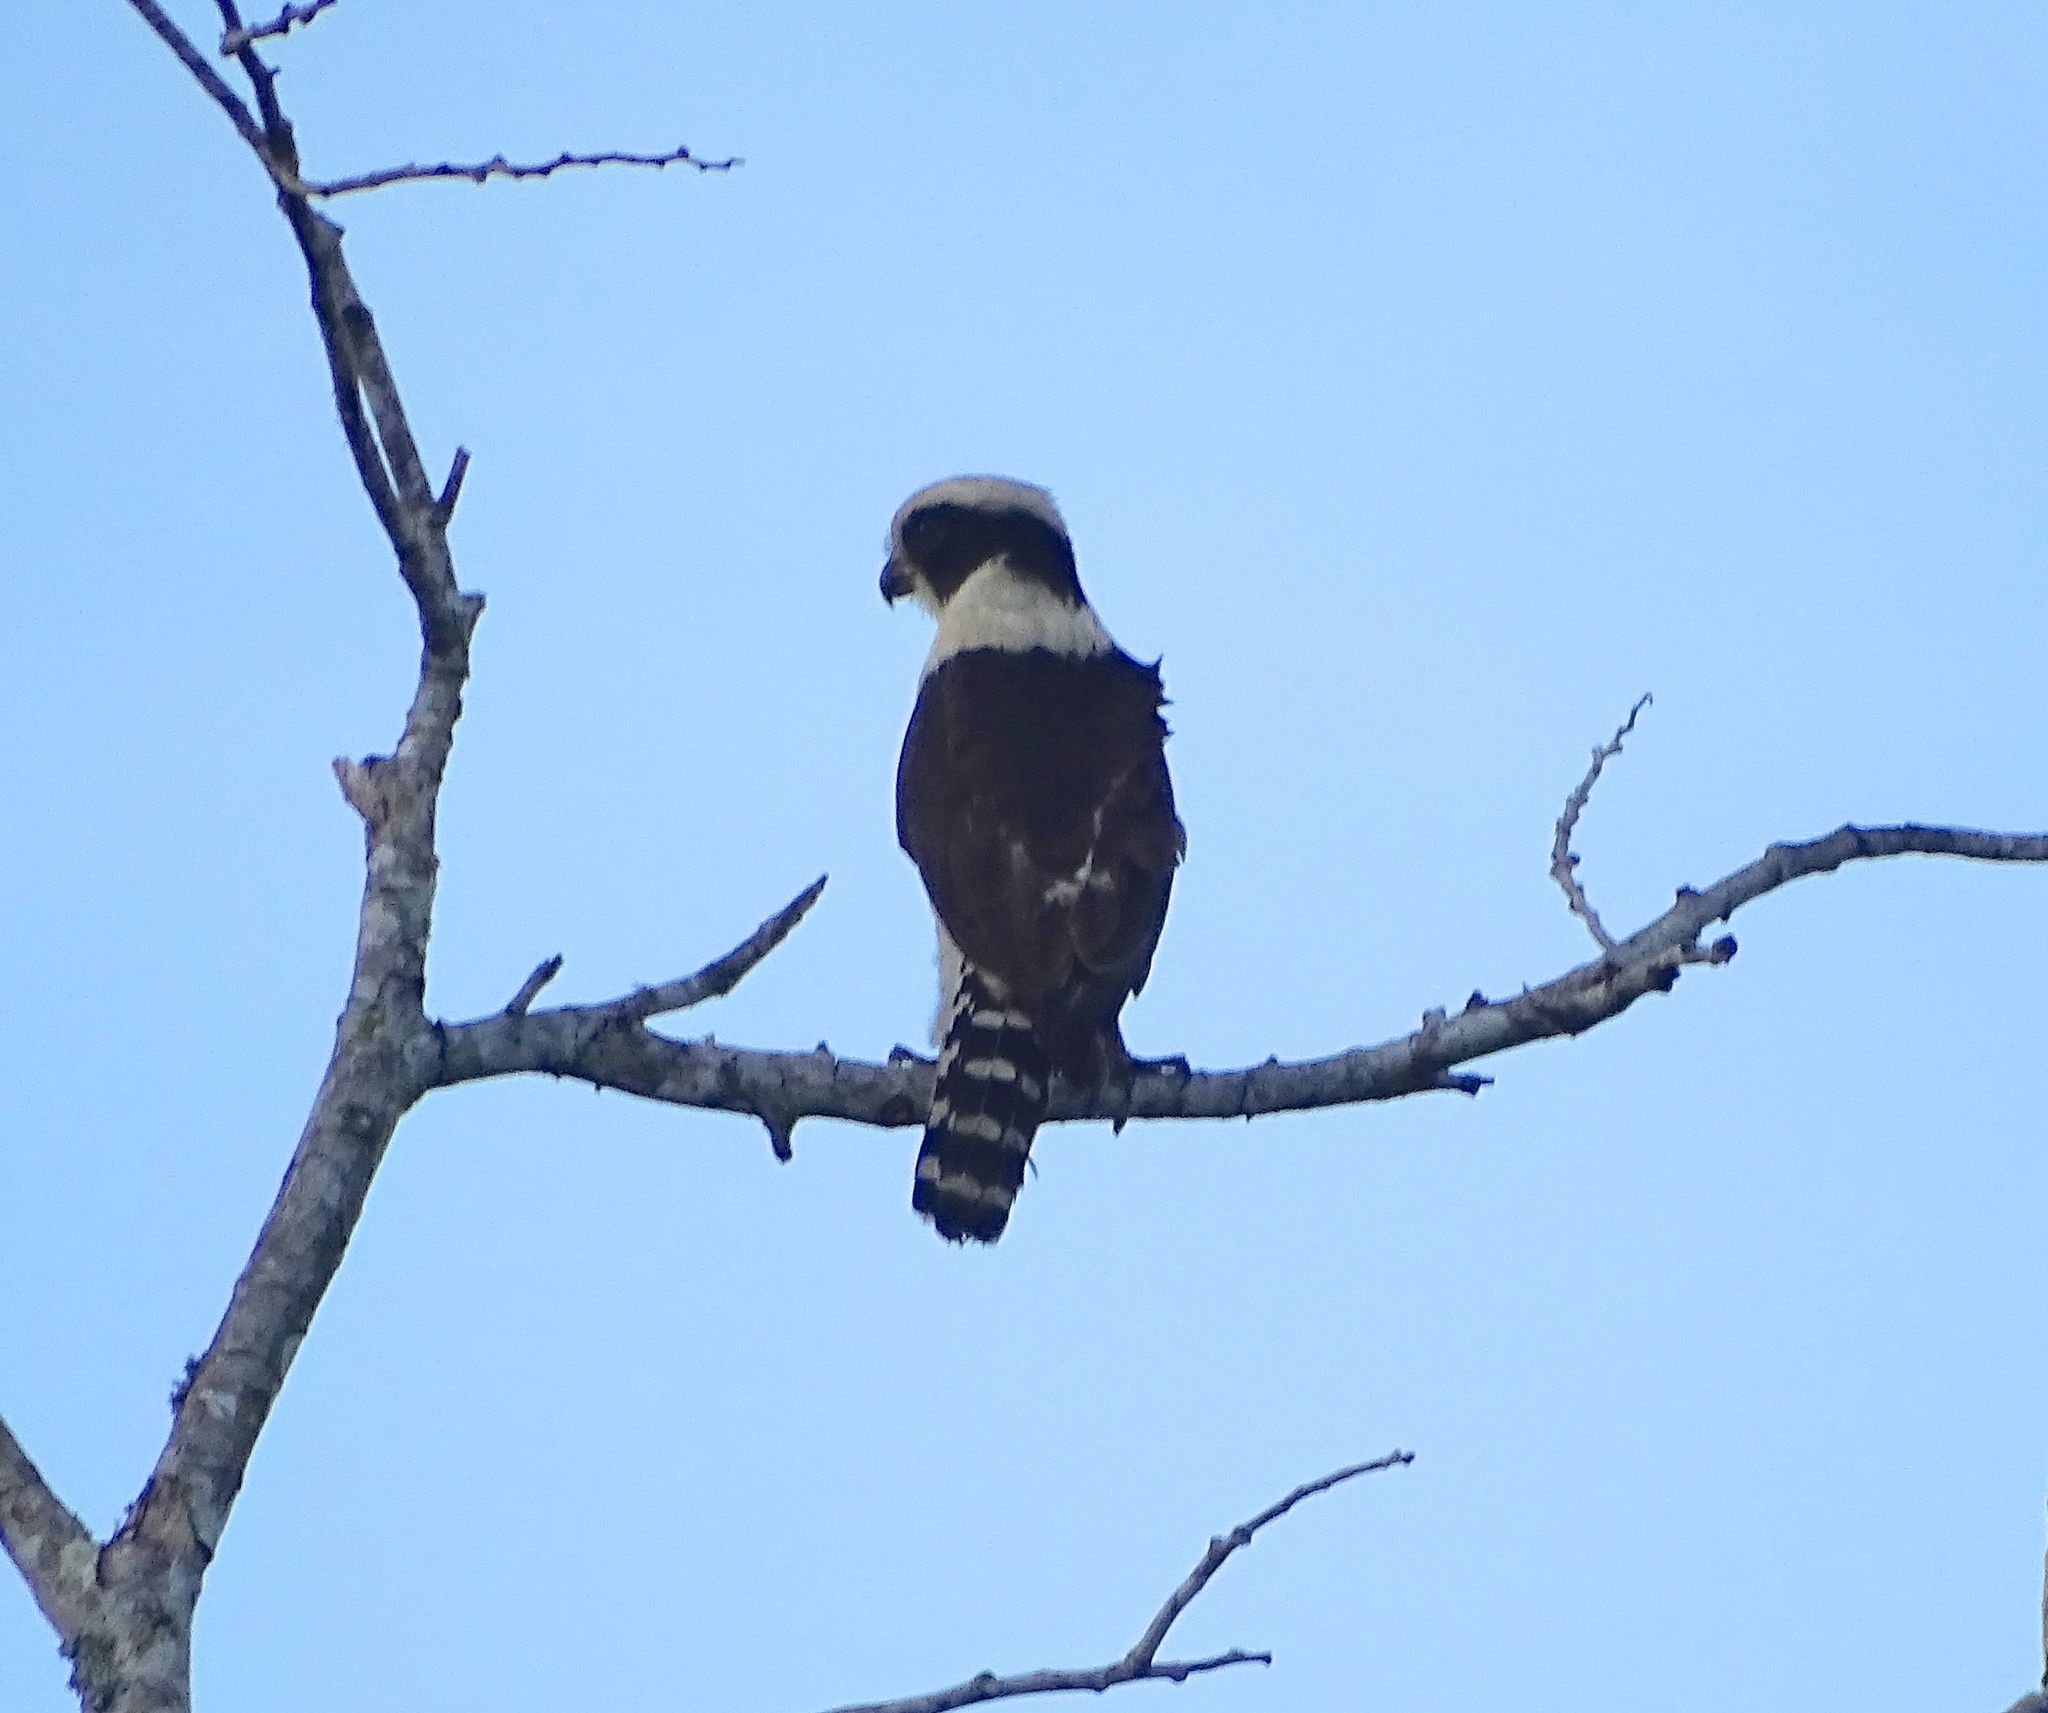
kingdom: Animalia
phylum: Chordata
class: Aves
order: Falconiformes
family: Falconidae
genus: Herpetotheres
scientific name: Herpetotheres cachinnans
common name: Laughing falcon
